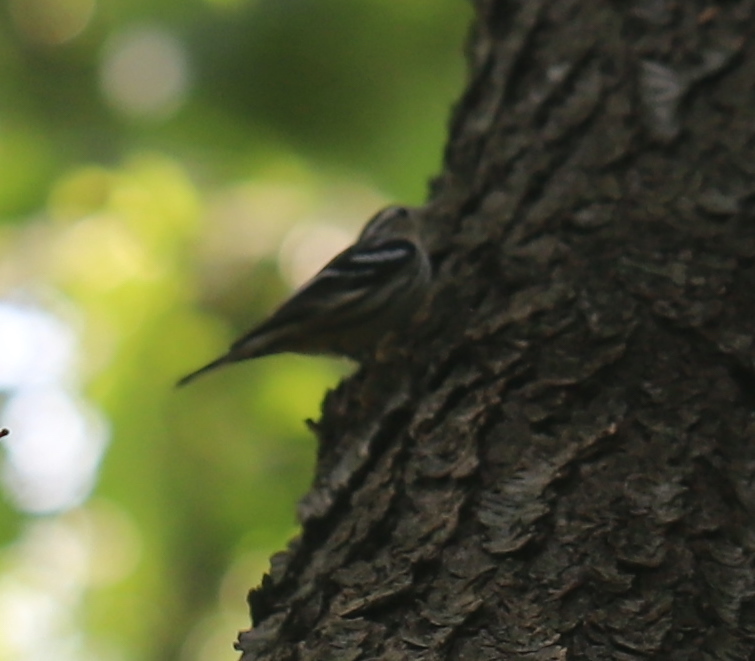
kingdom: Animalia
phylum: Chordata
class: Aves
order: Passeriformes
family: Parulidae
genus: Mniotilta
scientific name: Mniotilta varia
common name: Black-and-white warbler
